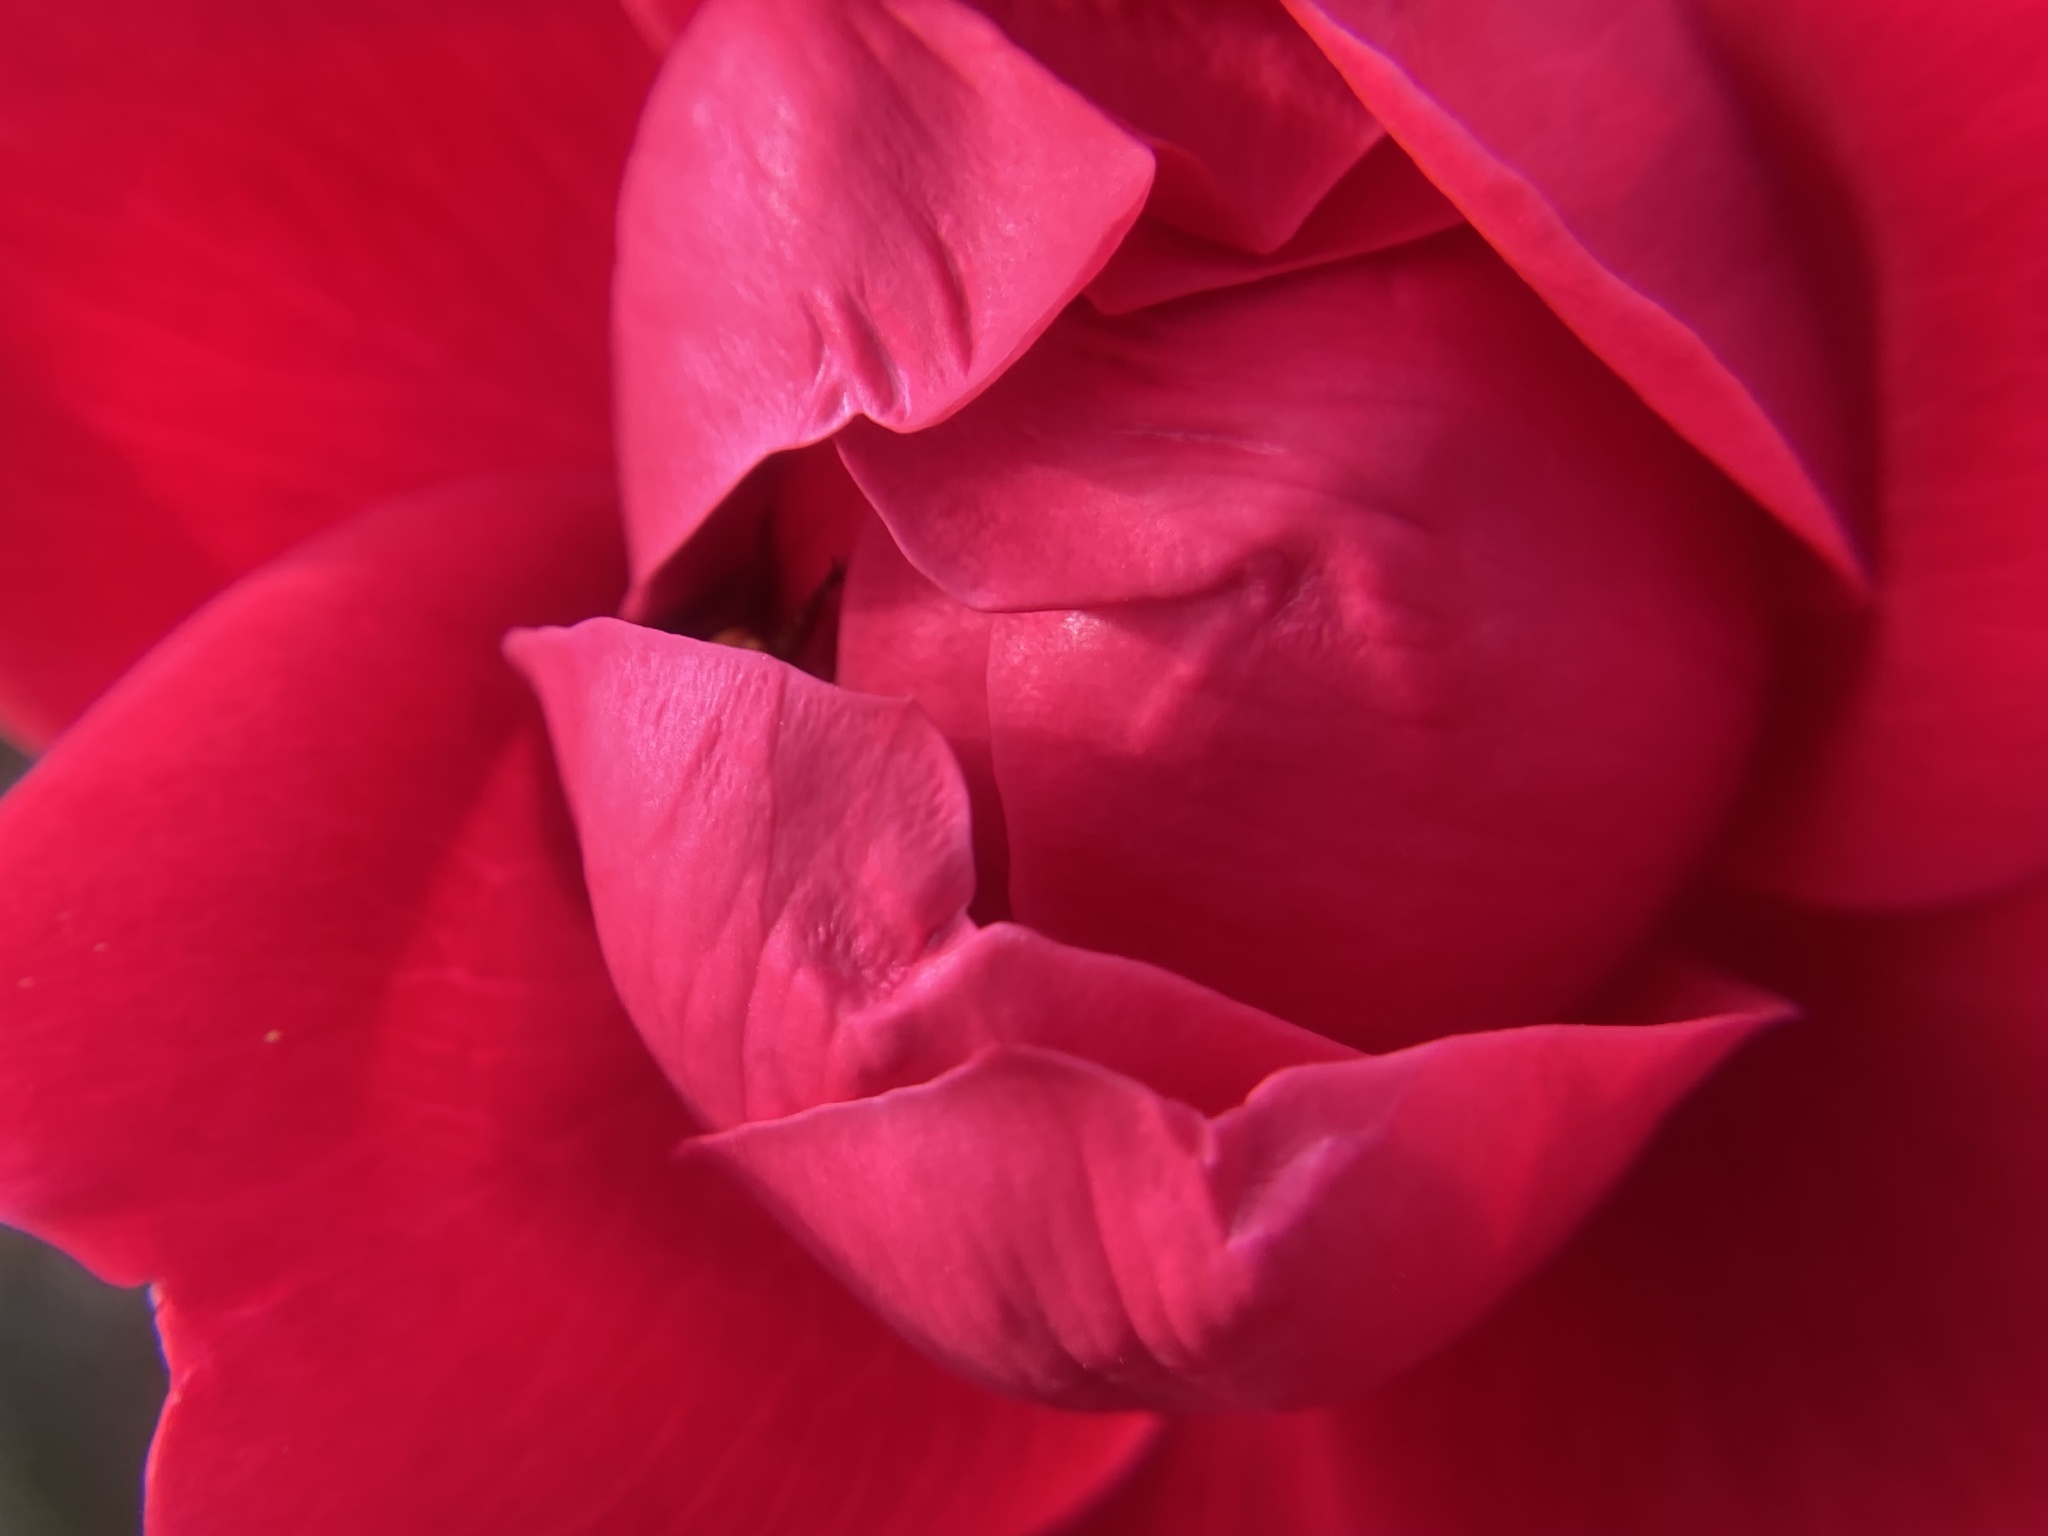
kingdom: Animalia
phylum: Arthropoda
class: Insecta
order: Hymenoptera
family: Apidae
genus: Apis
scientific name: Apis mellifera
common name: Honey bee
